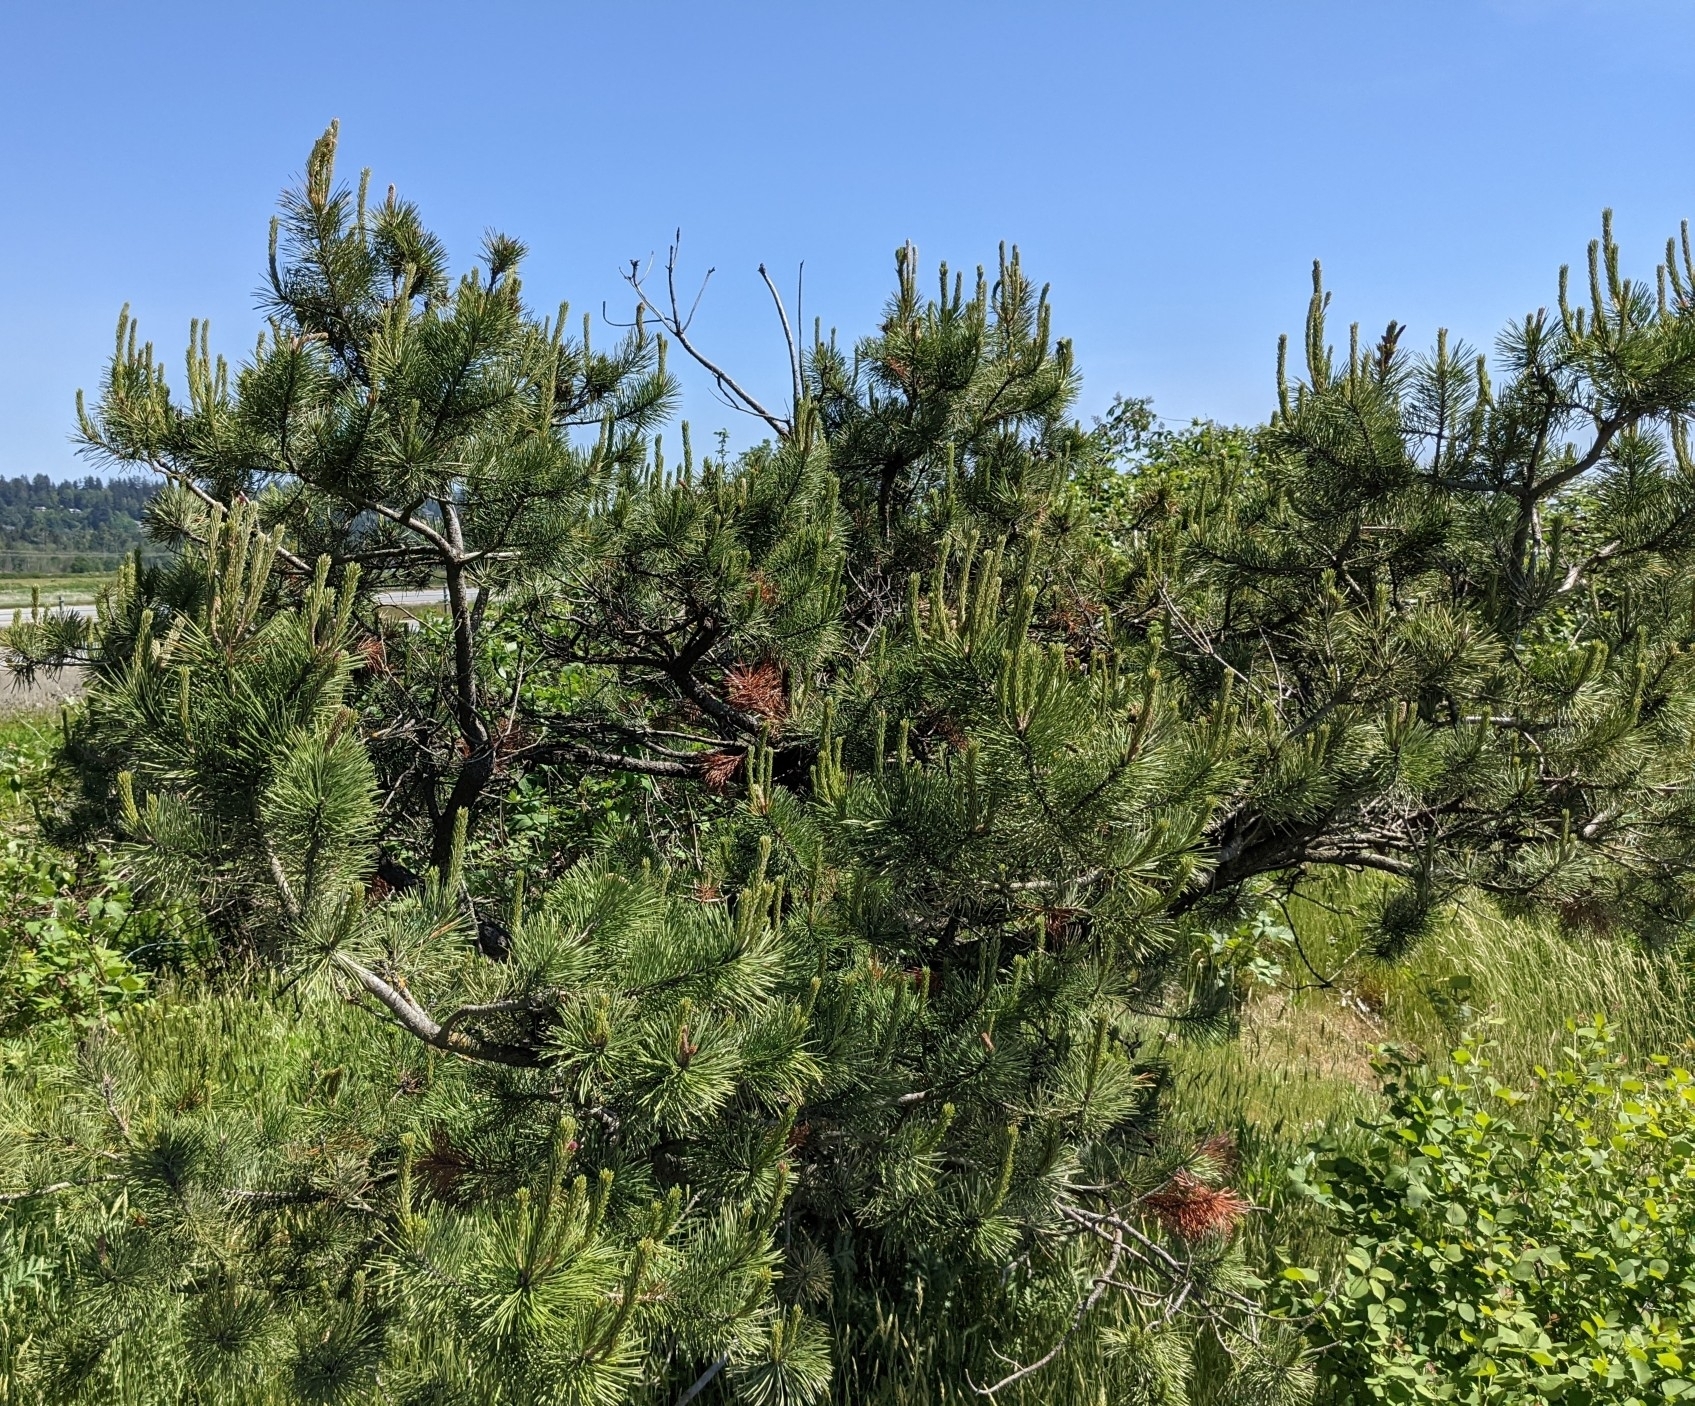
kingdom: Plantae
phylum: Tracheophyta
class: Pinopsida
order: Pinales
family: Pinaceae
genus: Pinus
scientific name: Pinus contorta
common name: Lodgepole pine
